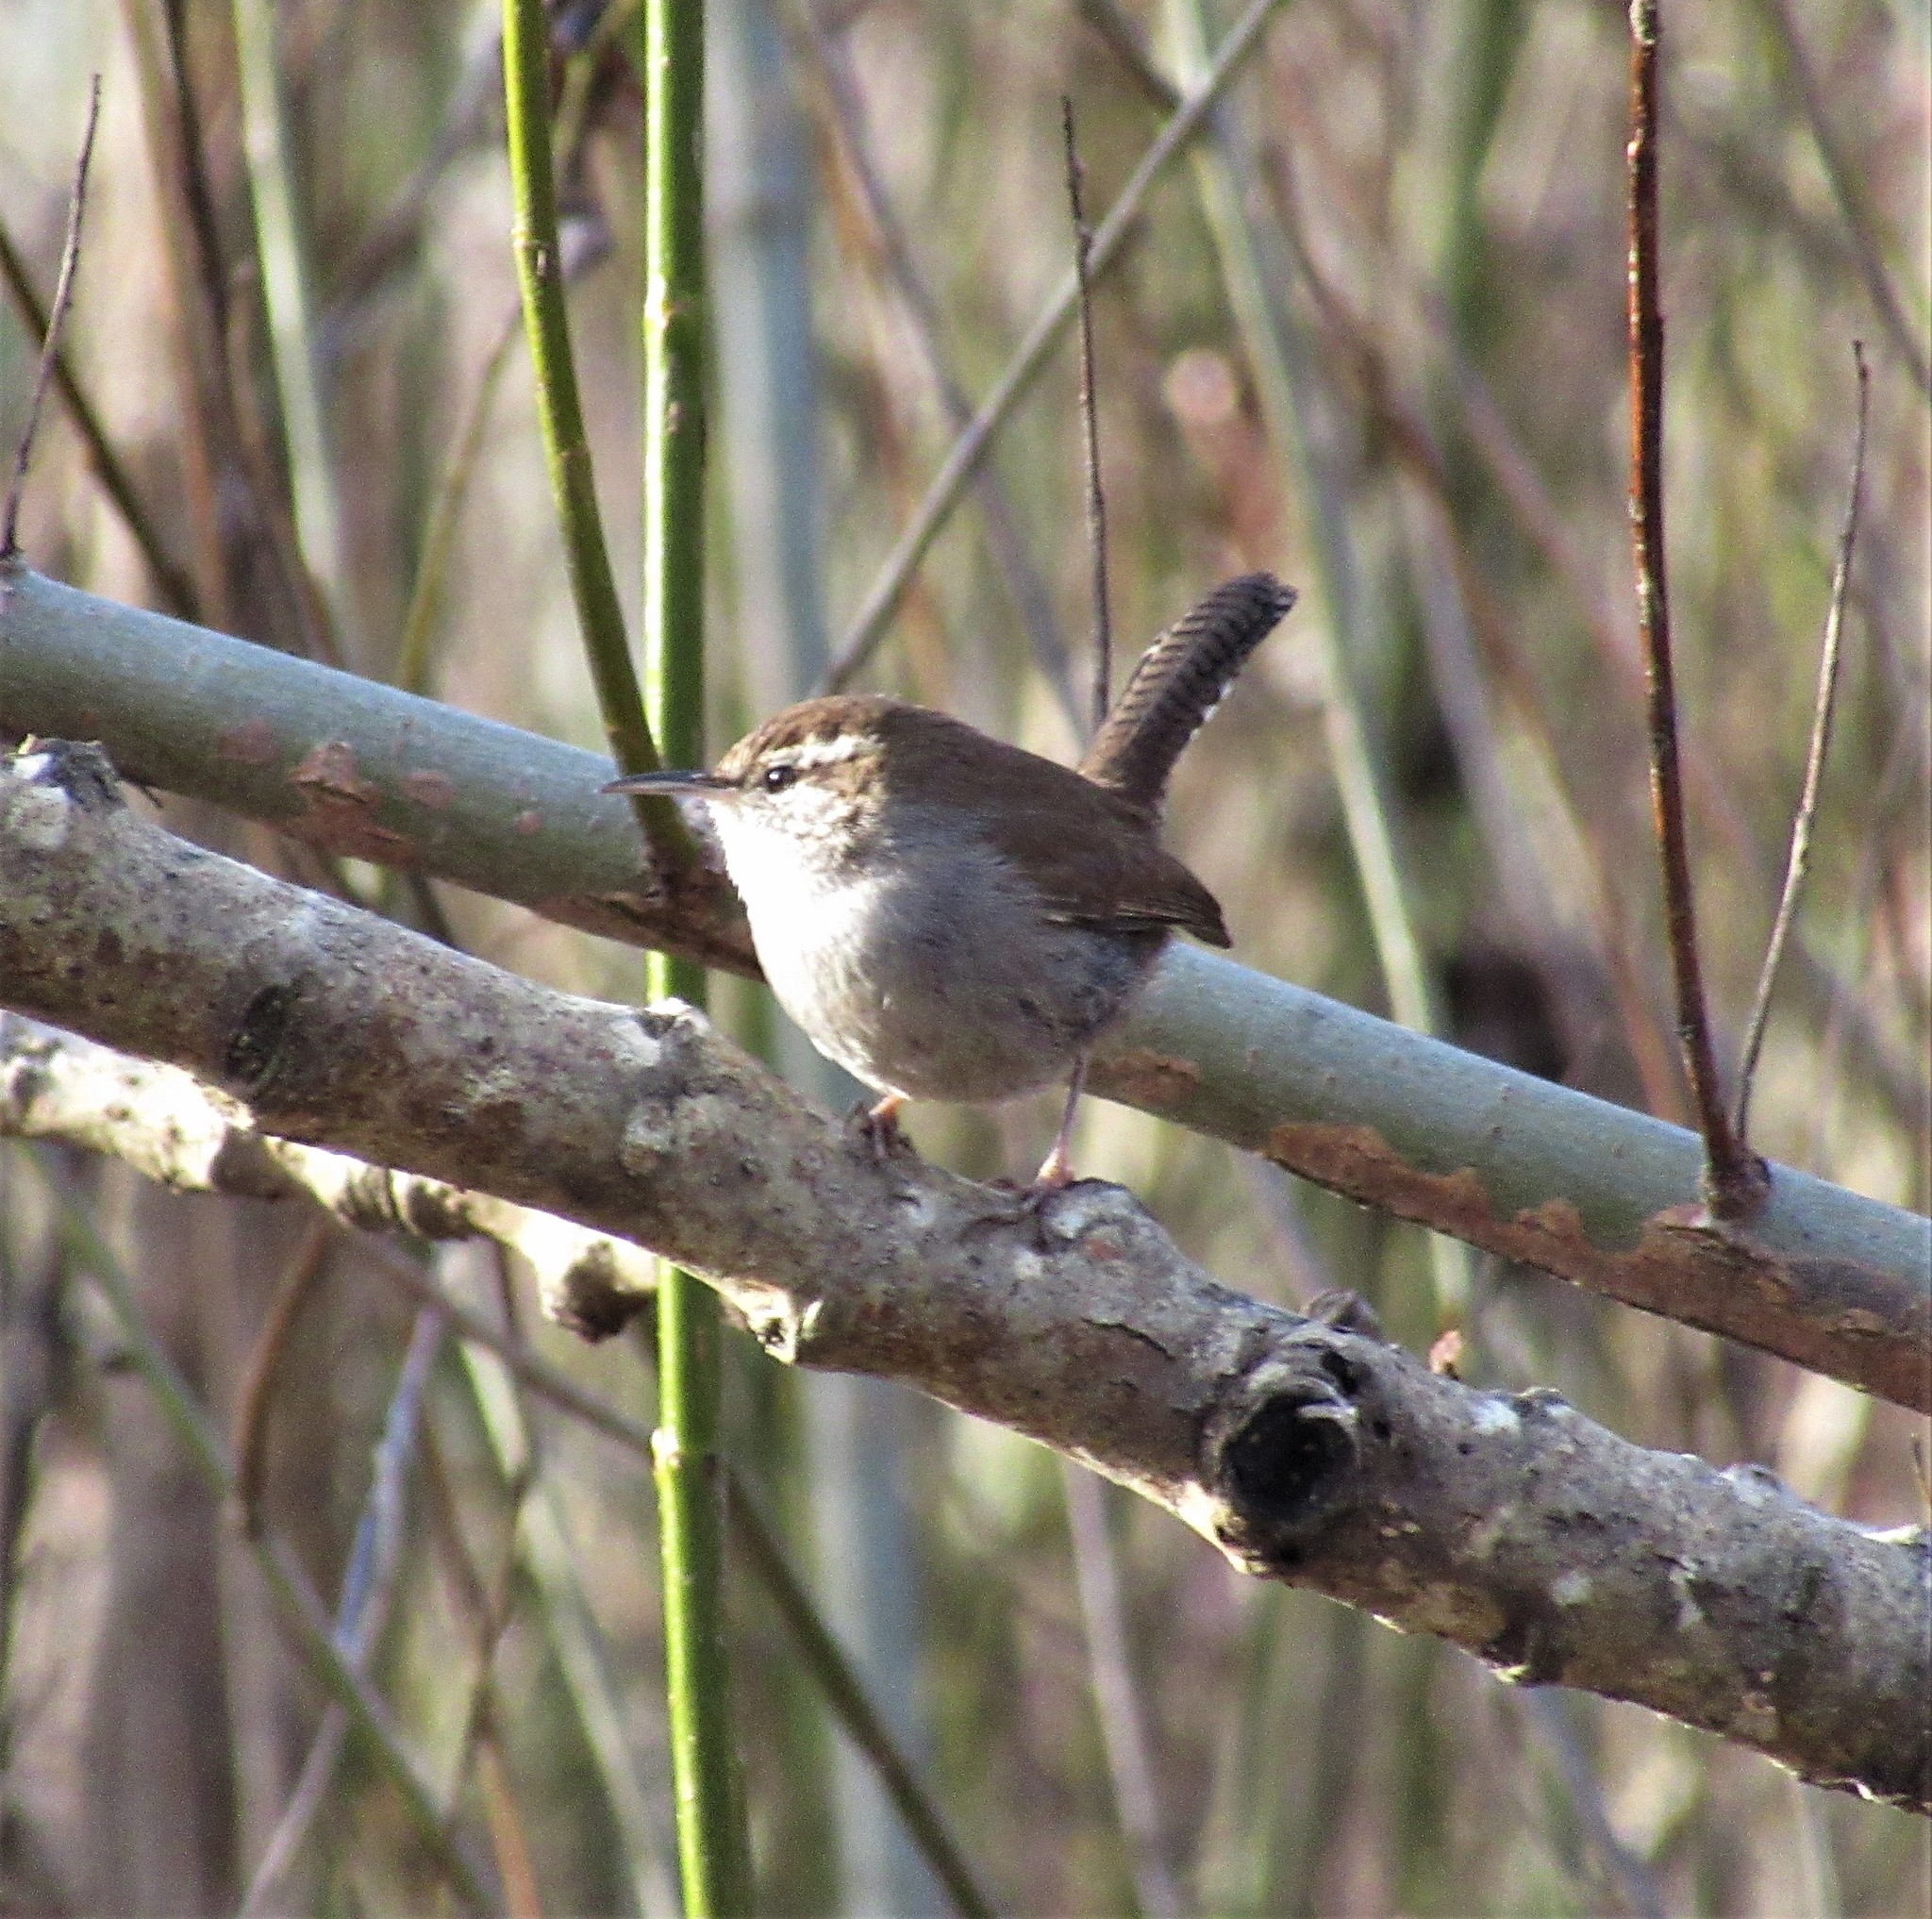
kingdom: Animalia
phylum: Chordata
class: Aves
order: Passeriformes
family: Troglodytidae
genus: Thryomanes
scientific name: Thryomanes bewickii
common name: Bewick's wren
